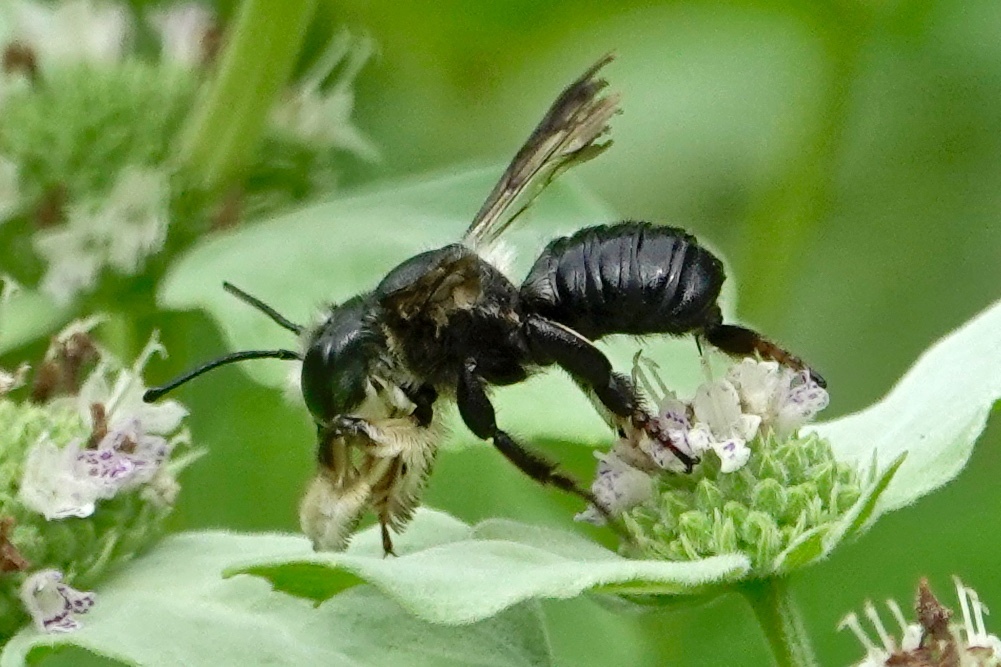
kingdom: Animalia
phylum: Arthropoda
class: Insecta
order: Hymenoptera
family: Megachilidae
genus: Megachile
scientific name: Megachile xylocopoides
